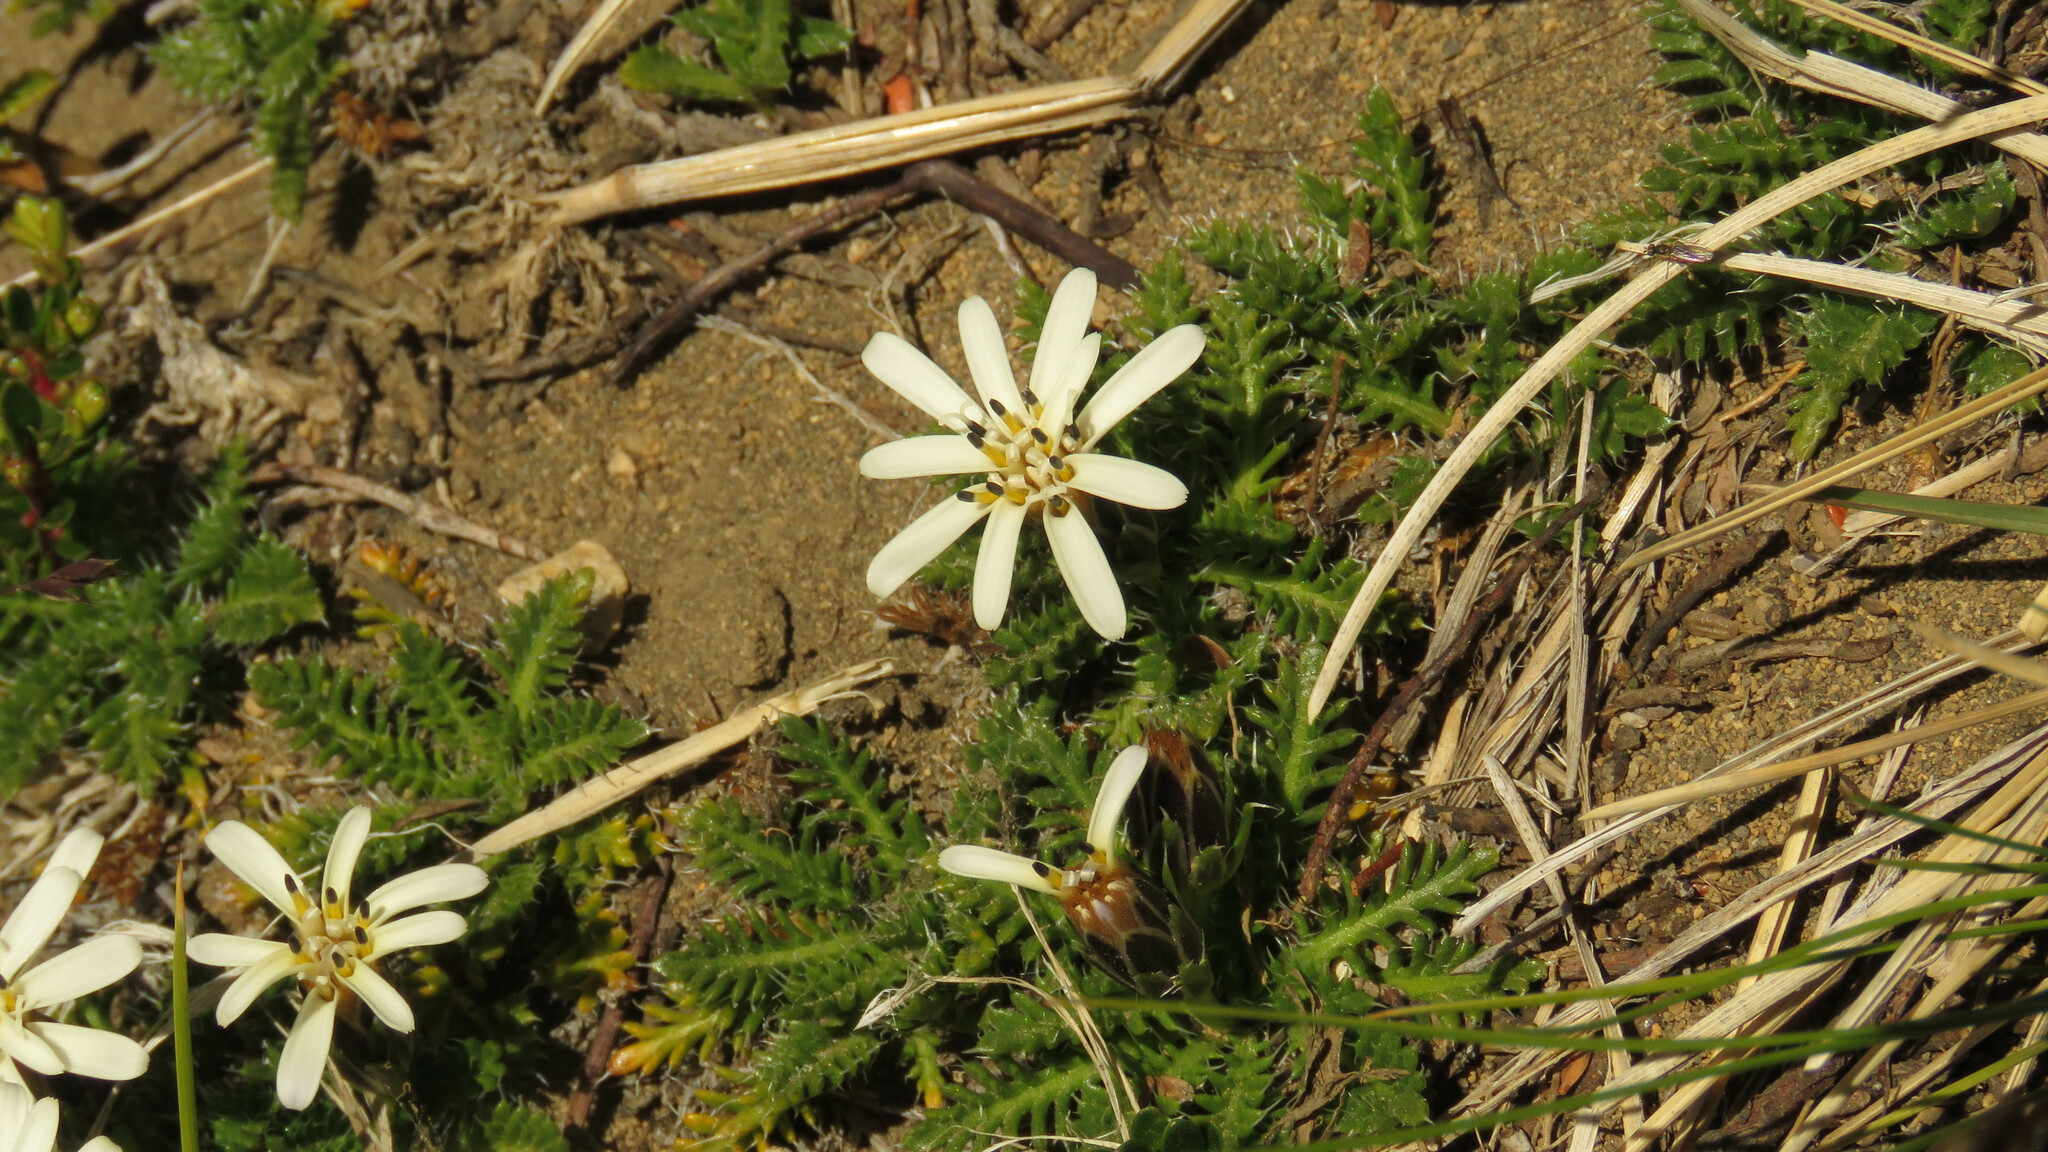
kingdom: Plantae
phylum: Tracheophyta
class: Magnoliopsida
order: Asterales
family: Asteraceae
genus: Perezia
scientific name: Perezia pilifera
